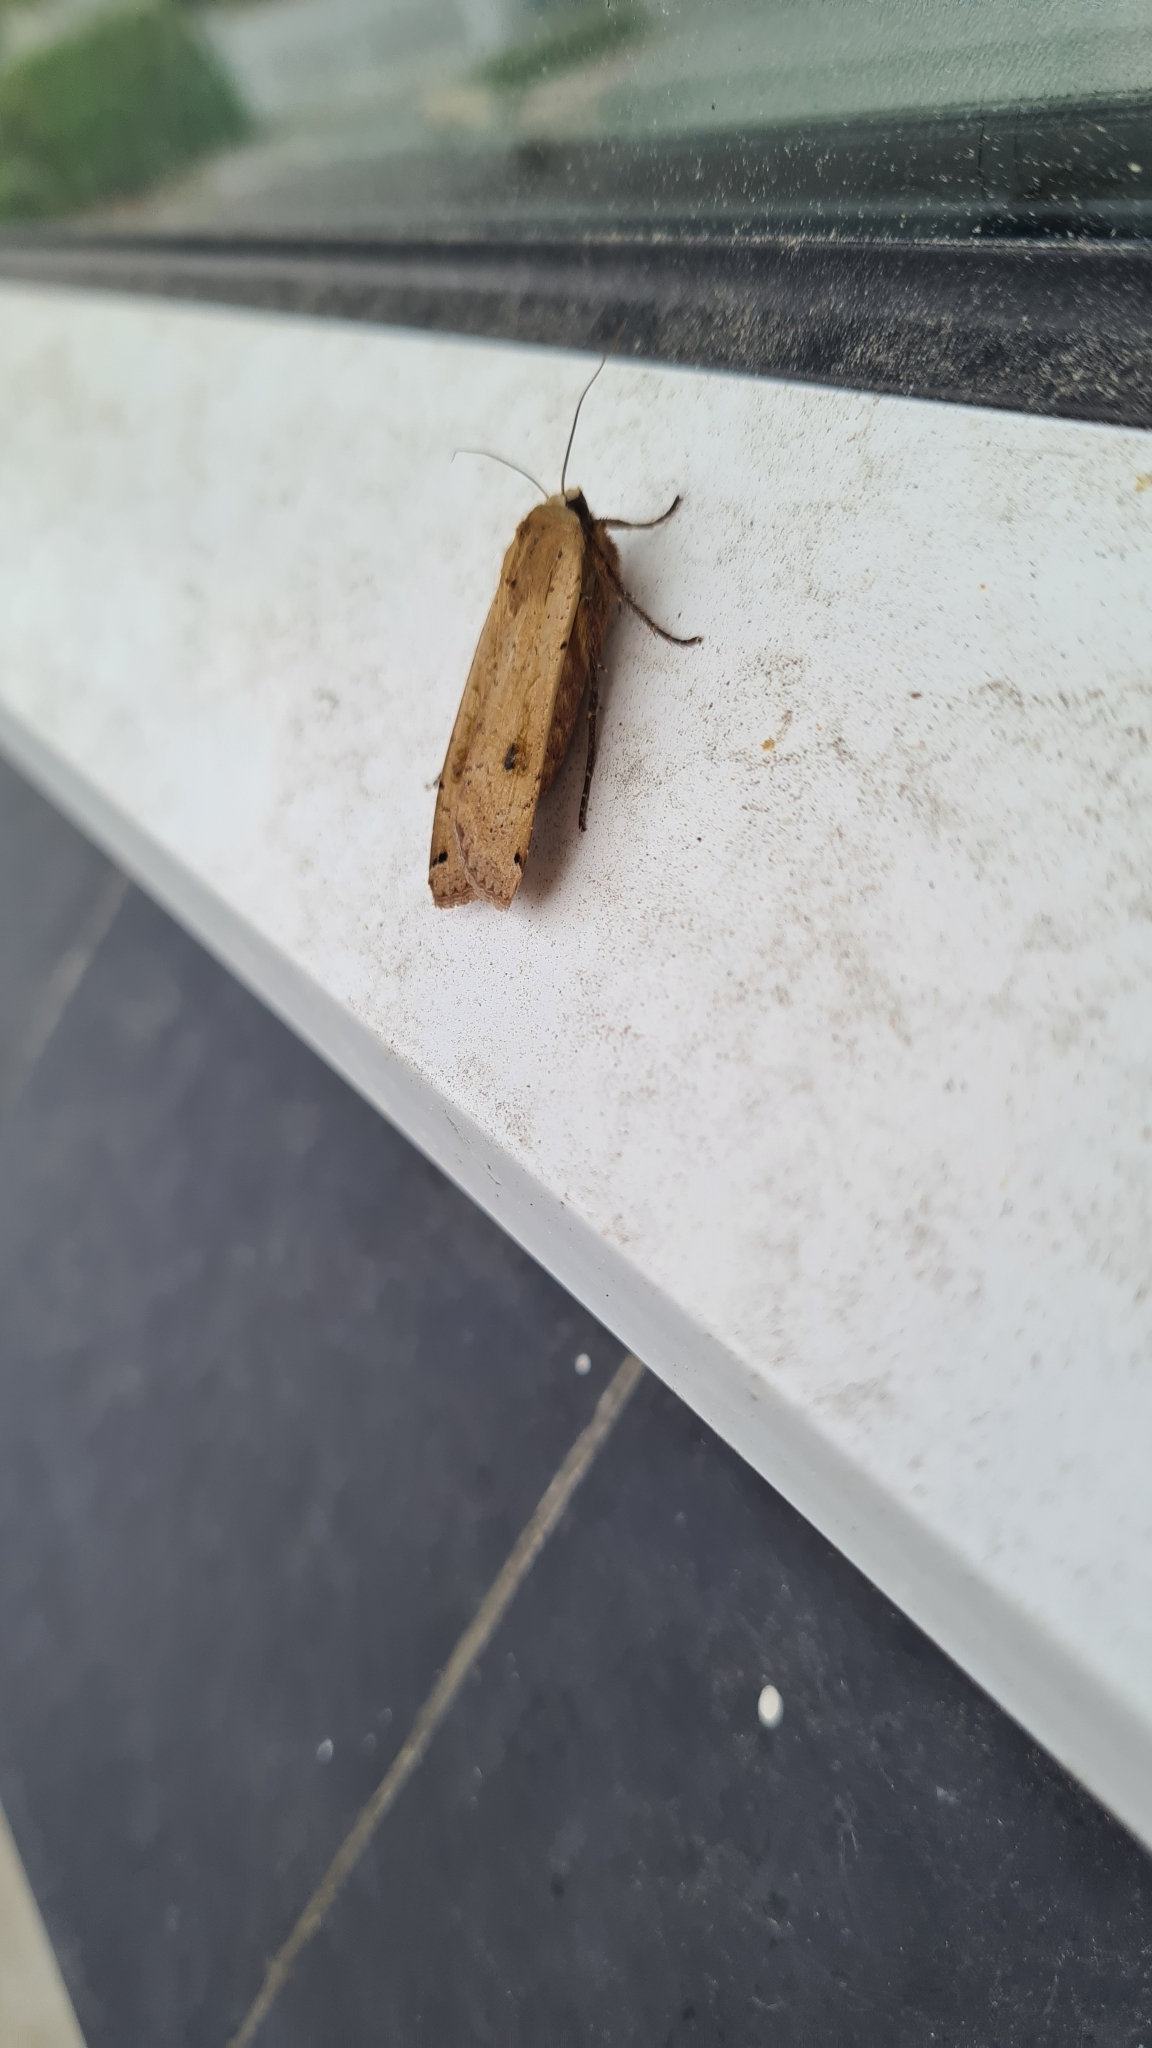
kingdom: Animalia
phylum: Arthropoda
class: Insecta
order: Lepidoptera
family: Noctuidae
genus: Noctua
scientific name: Noctua pronuba
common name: Large yellow underwing
